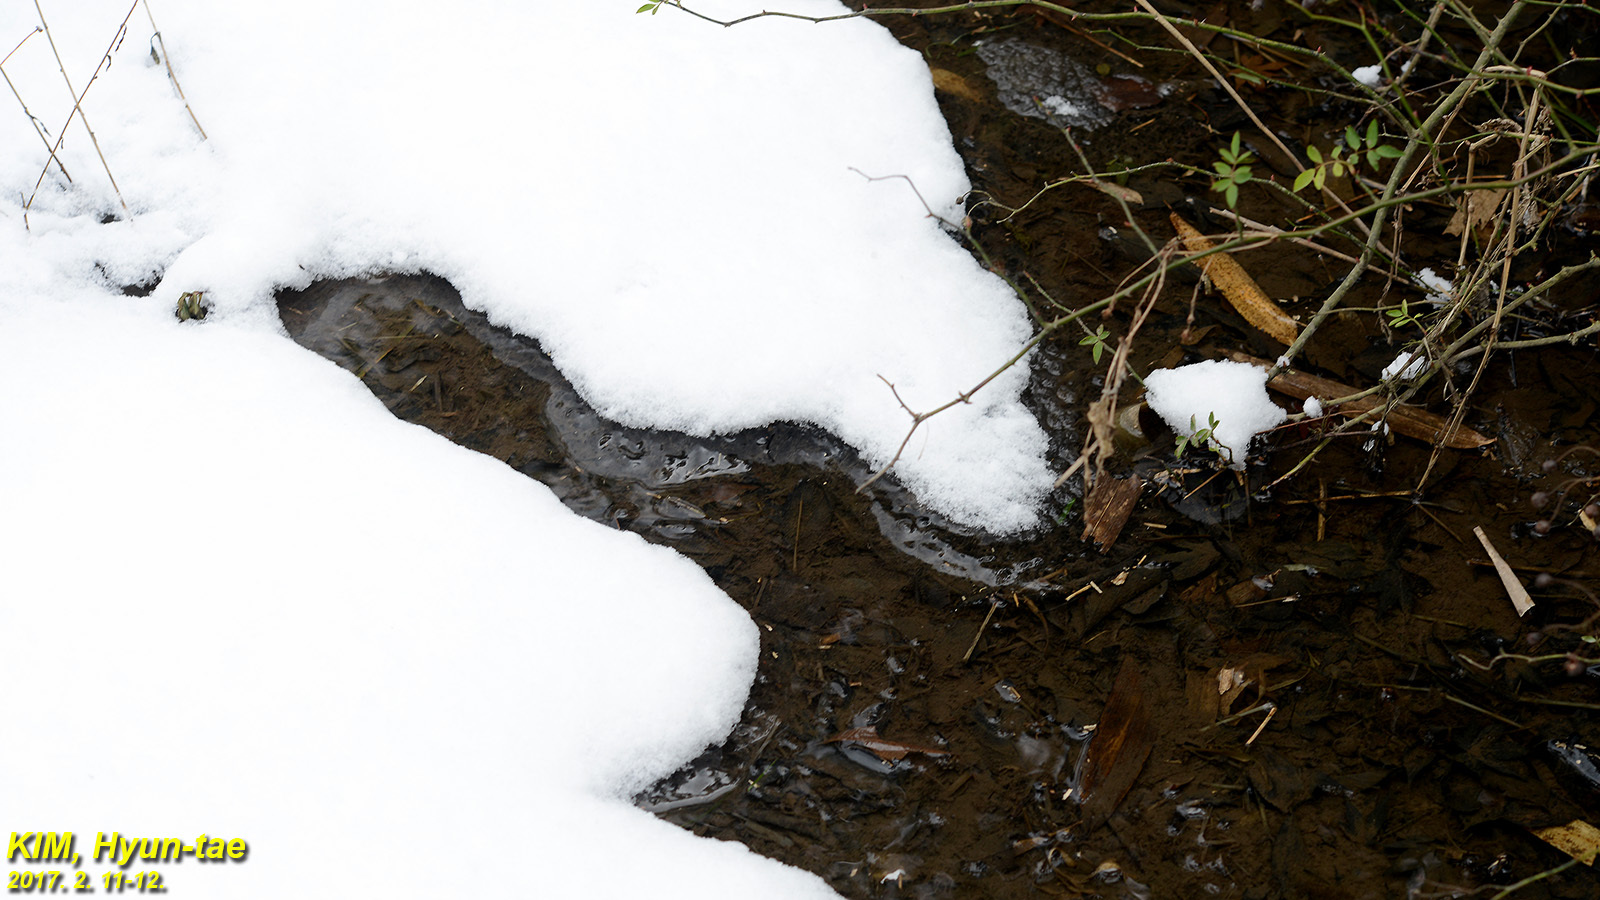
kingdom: Animalia
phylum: Chordata
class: Amphibia
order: Anura
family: Ranidae
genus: Rana
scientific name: Rana uenoi
